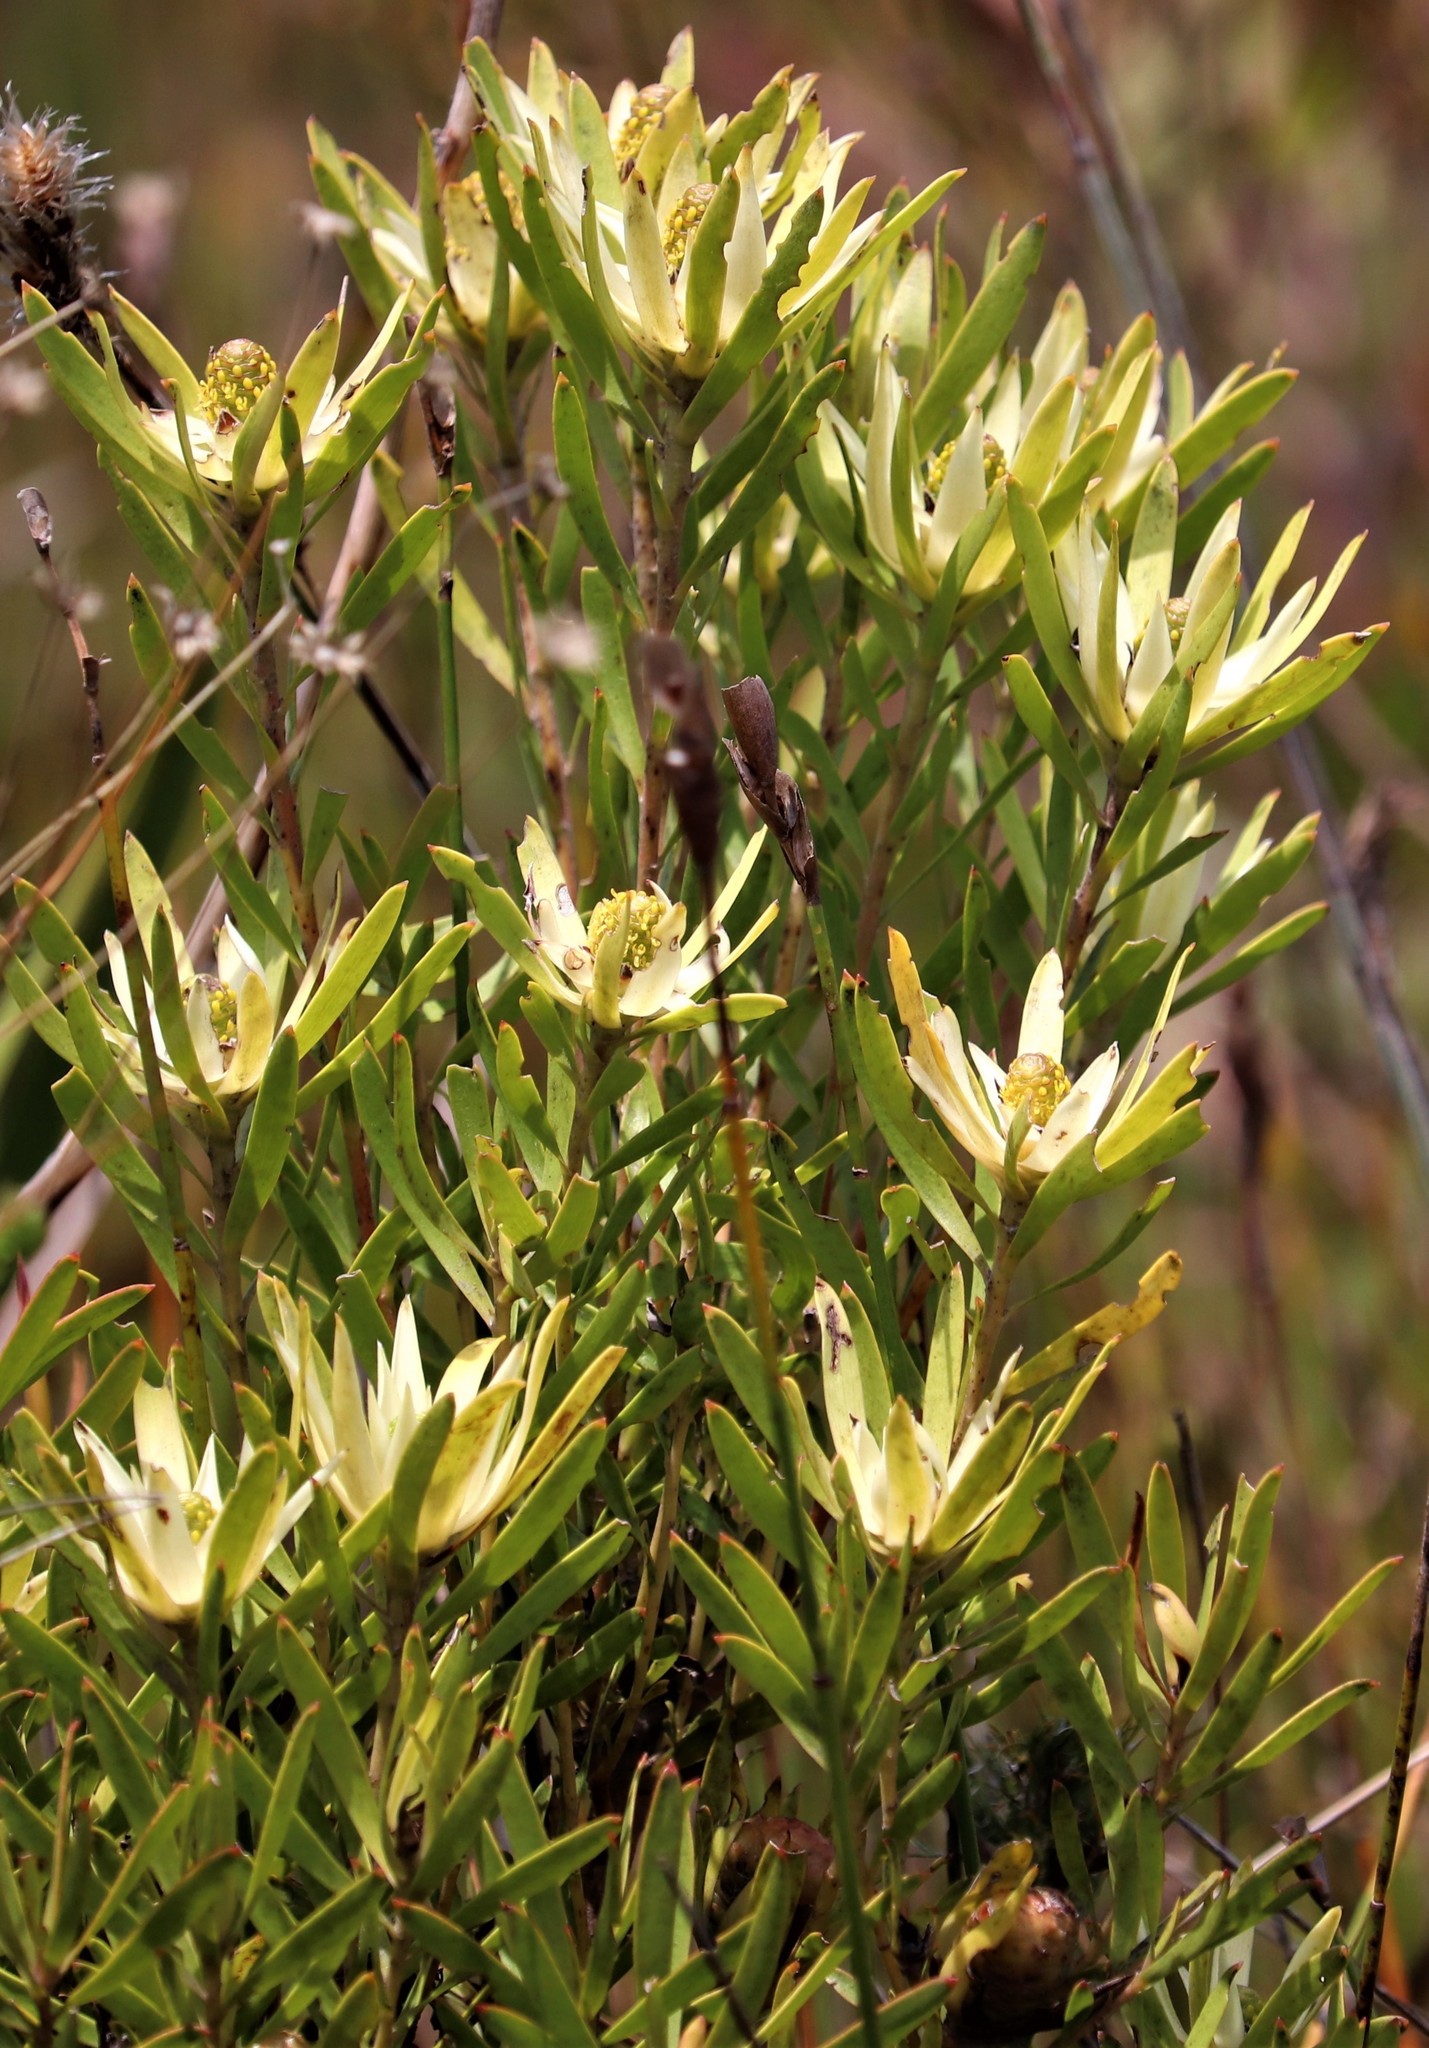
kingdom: Plantae
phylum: Tracheophyta
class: Magnoliopsida
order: Proteales
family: Proteaceae
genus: Leucadendron
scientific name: Leucadendron spissifolium
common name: Spear-leaf conebush
